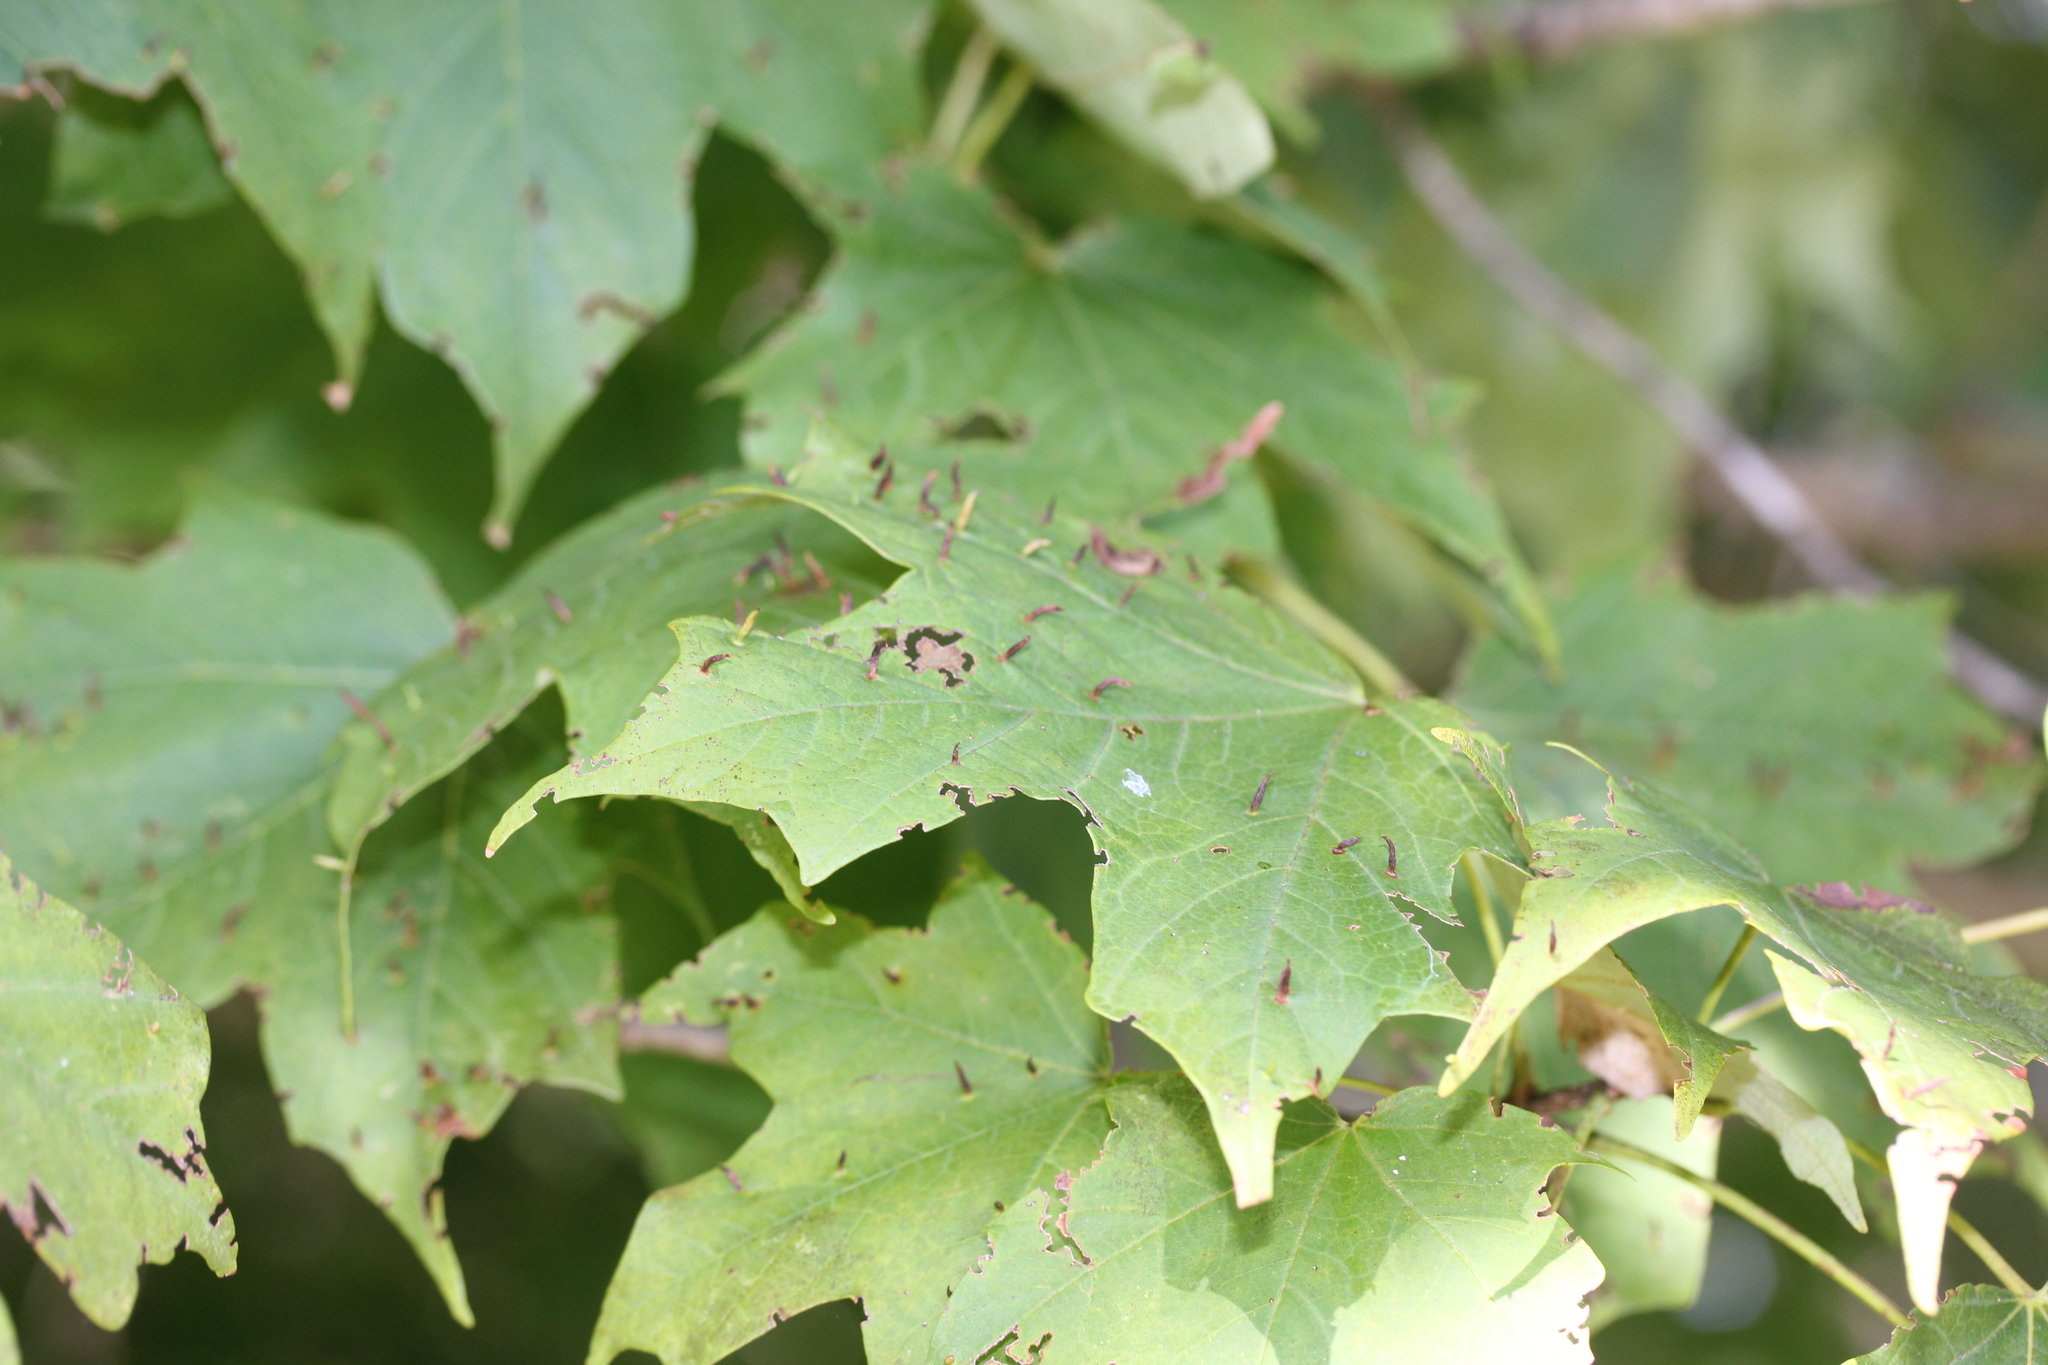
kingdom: Animalia
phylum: Arthropoda
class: Arachnida
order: Trombidiformes
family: Eriophyidae
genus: Vasates
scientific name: Vasates aceriscrumena
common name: Maple spindle gall mite
